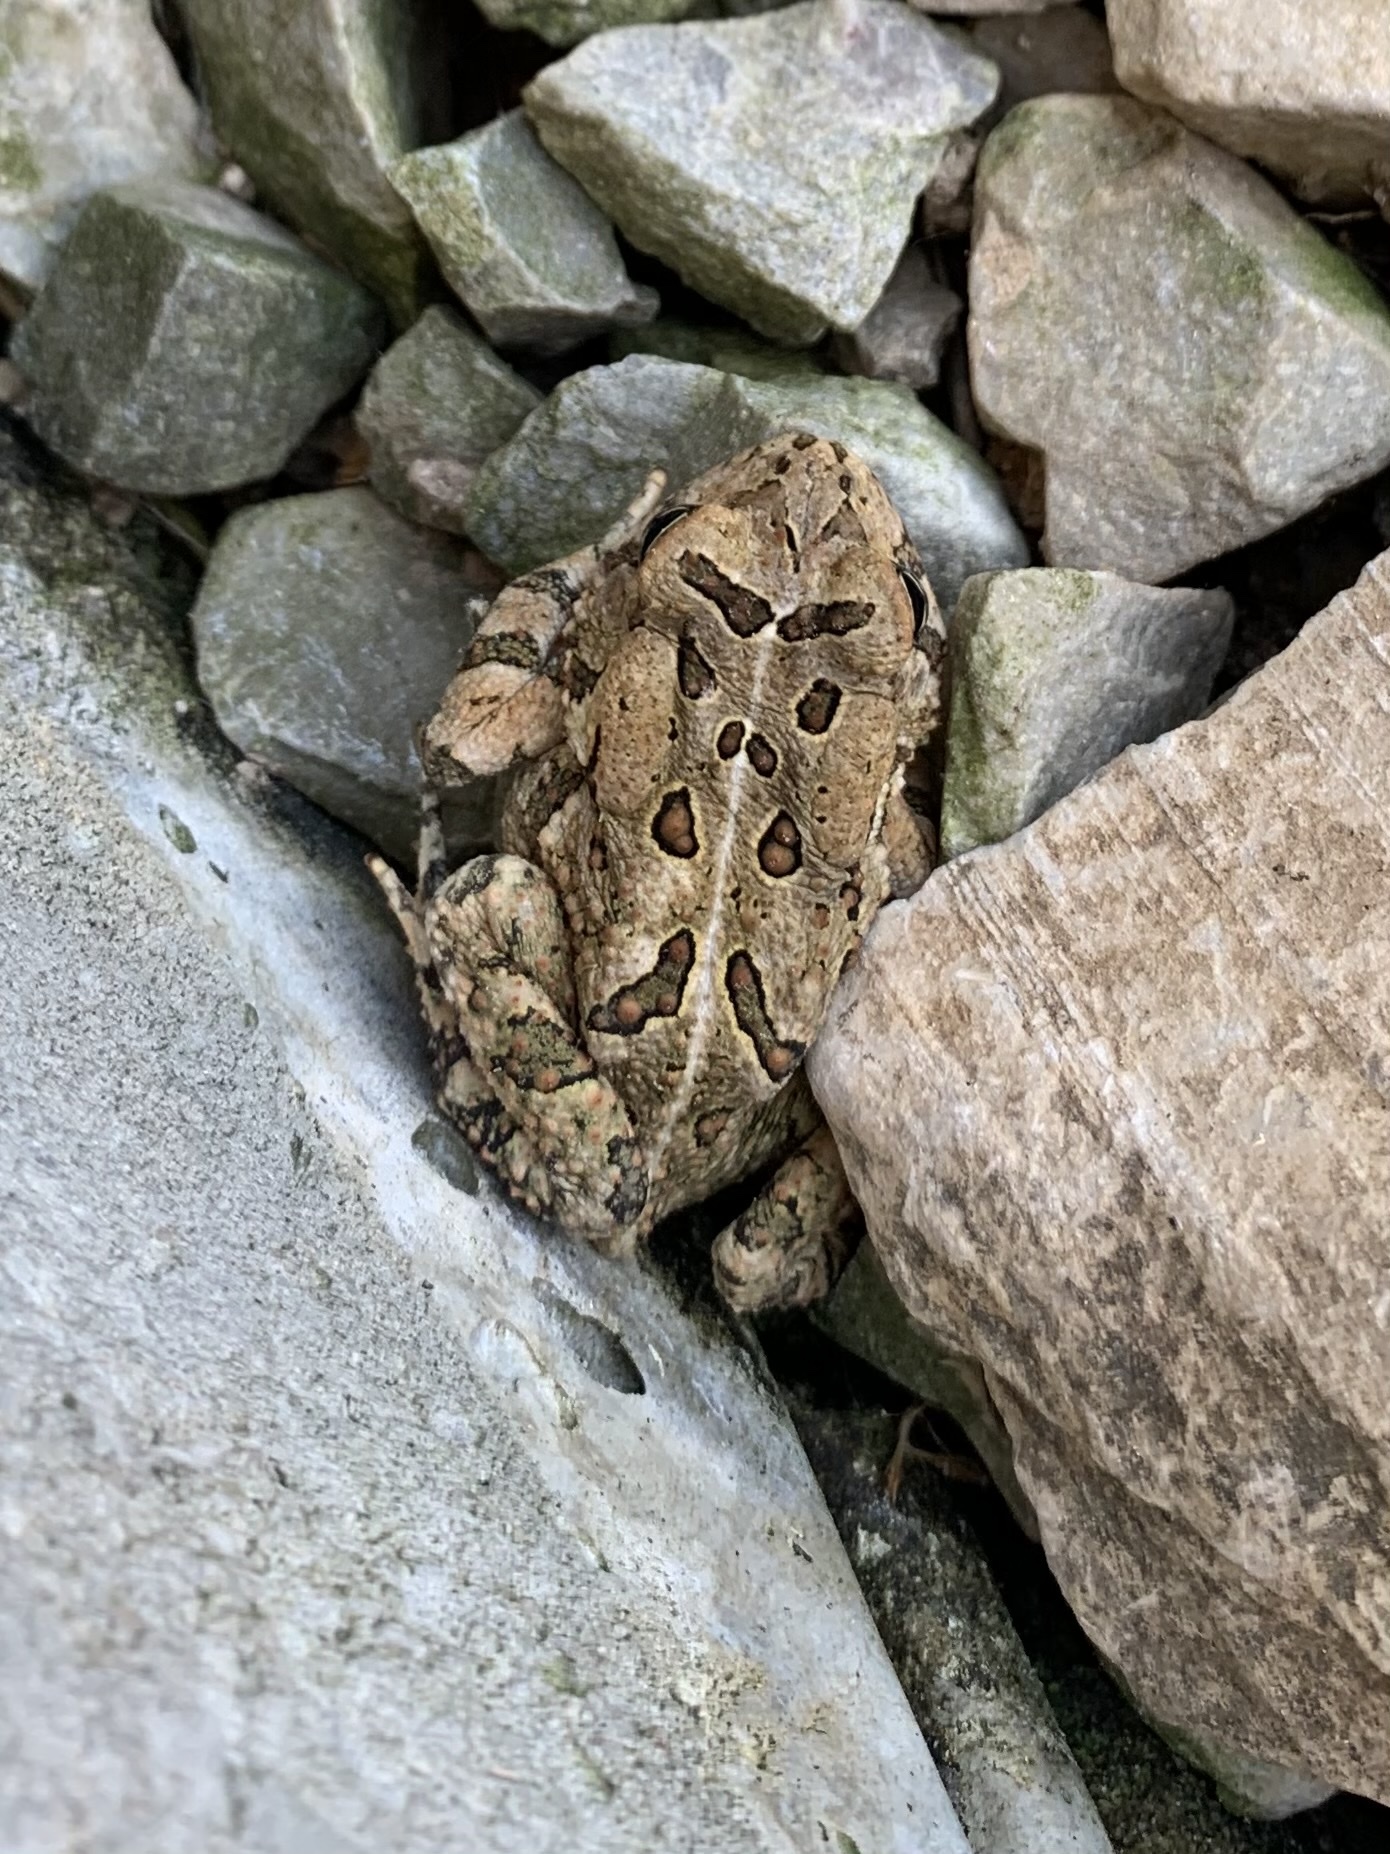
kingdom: Animalia
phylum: Chordata
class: Amphibia
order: Anura
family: Bufonidae
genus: Anaxyrus
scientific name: Anaxyrus fowleri
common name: Fowler's toad
